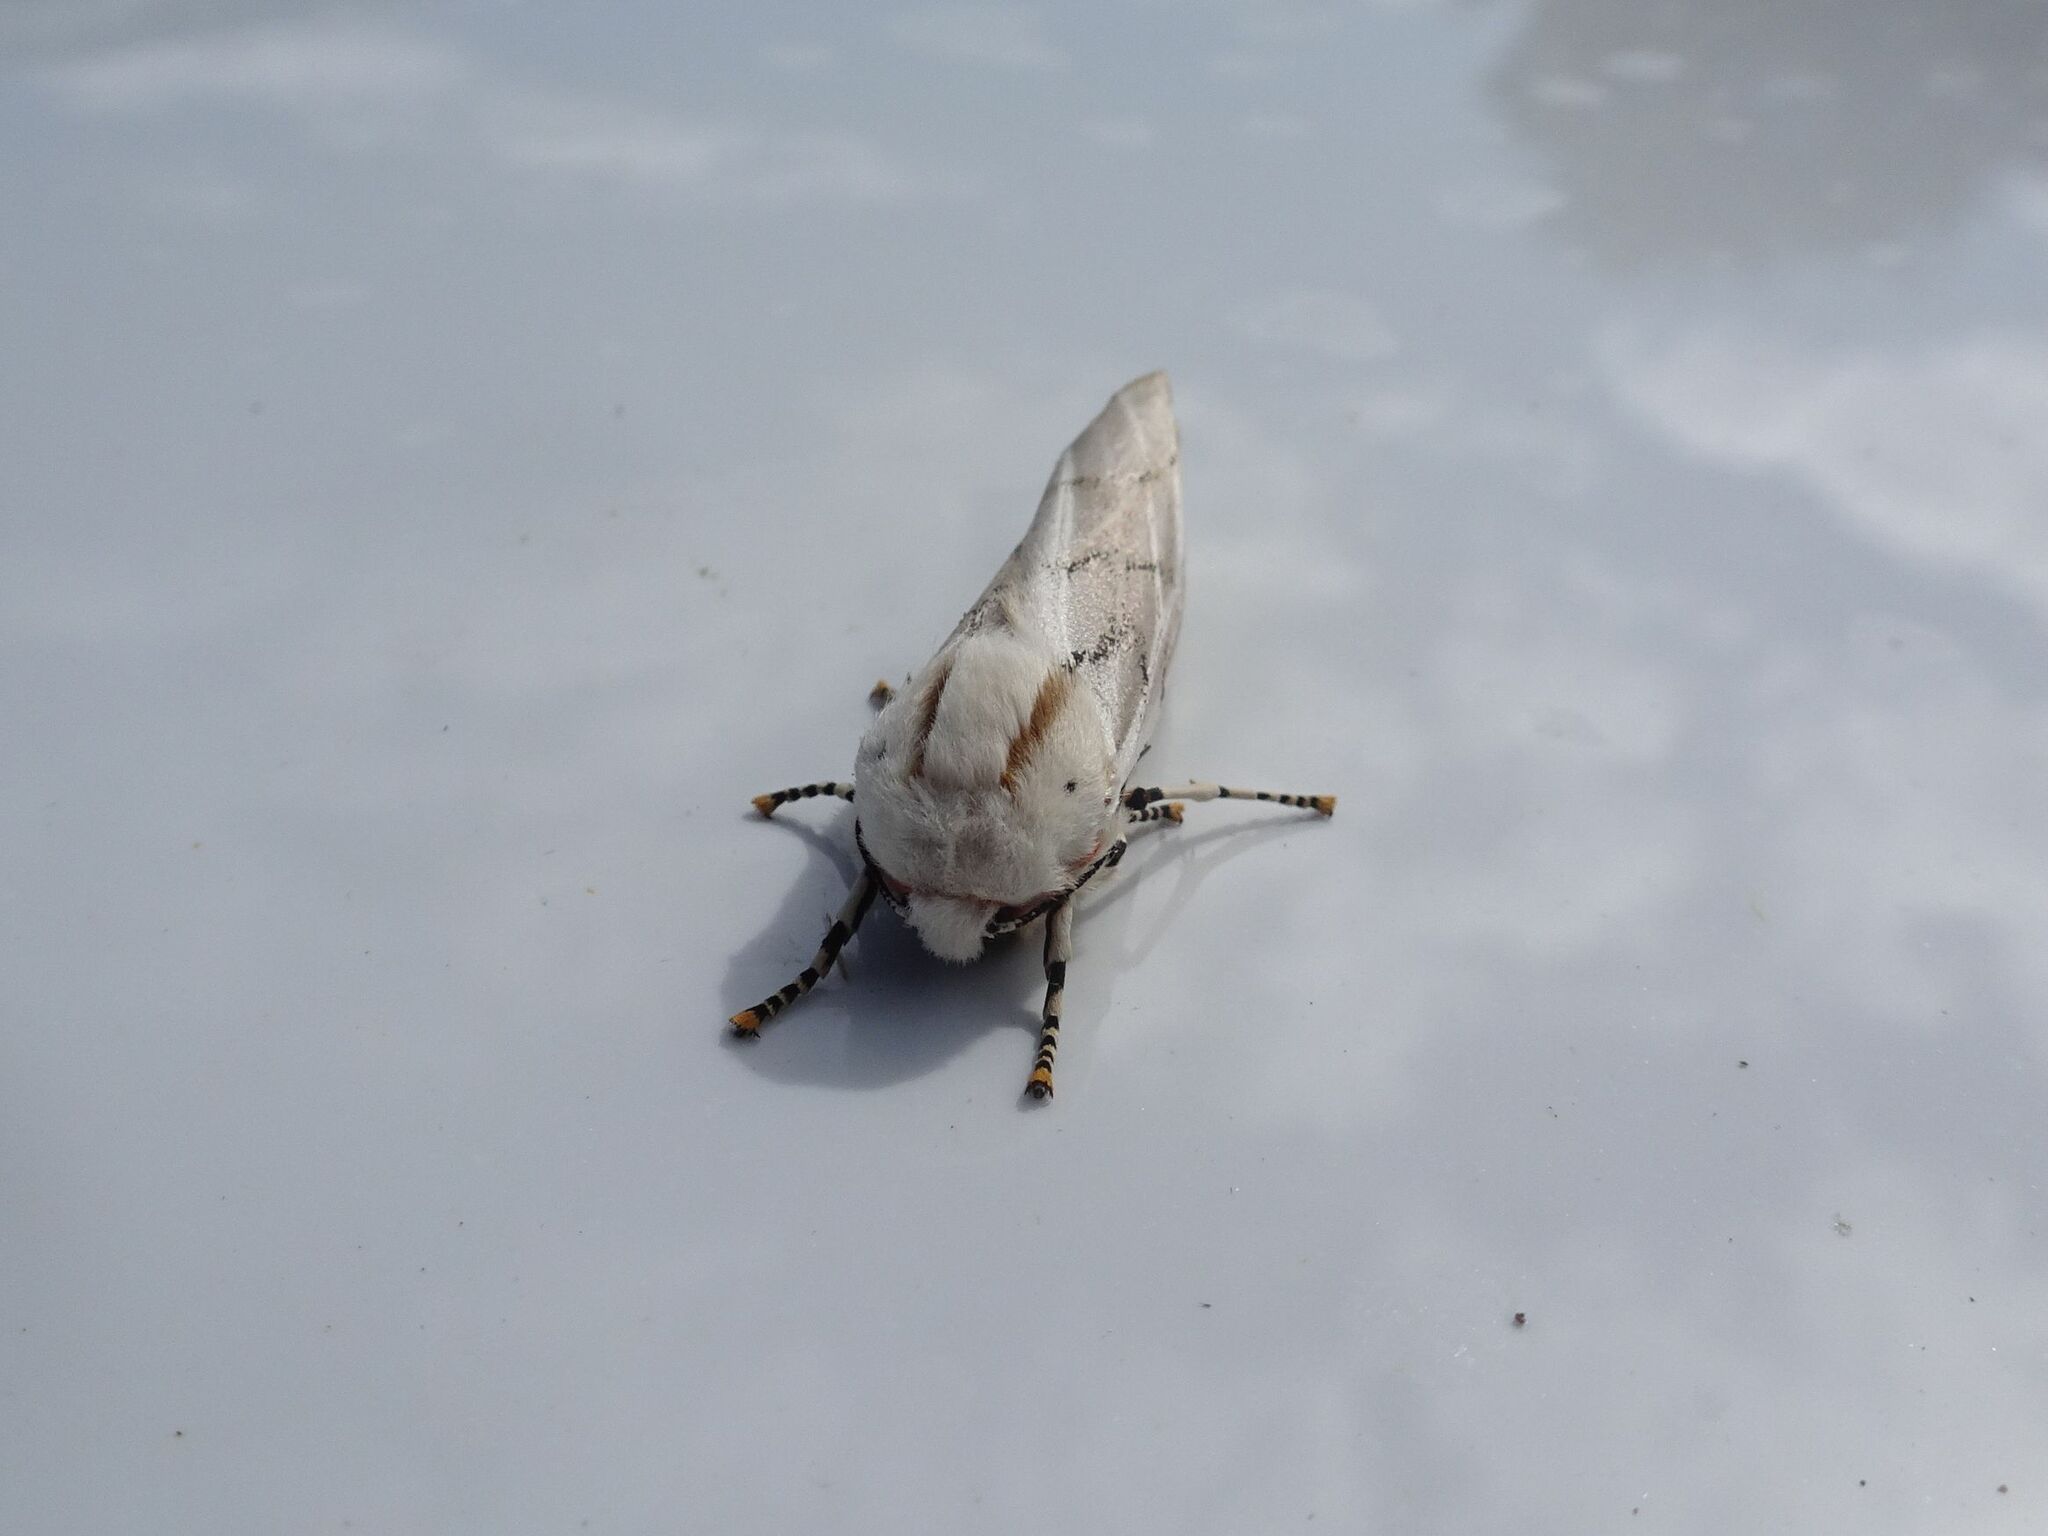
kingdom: Animalia
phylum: Arthropoda
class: Insecta
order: Lepidoptera
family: Erebidae
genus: Rhodogastria
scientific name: Rhodogastria amasis
